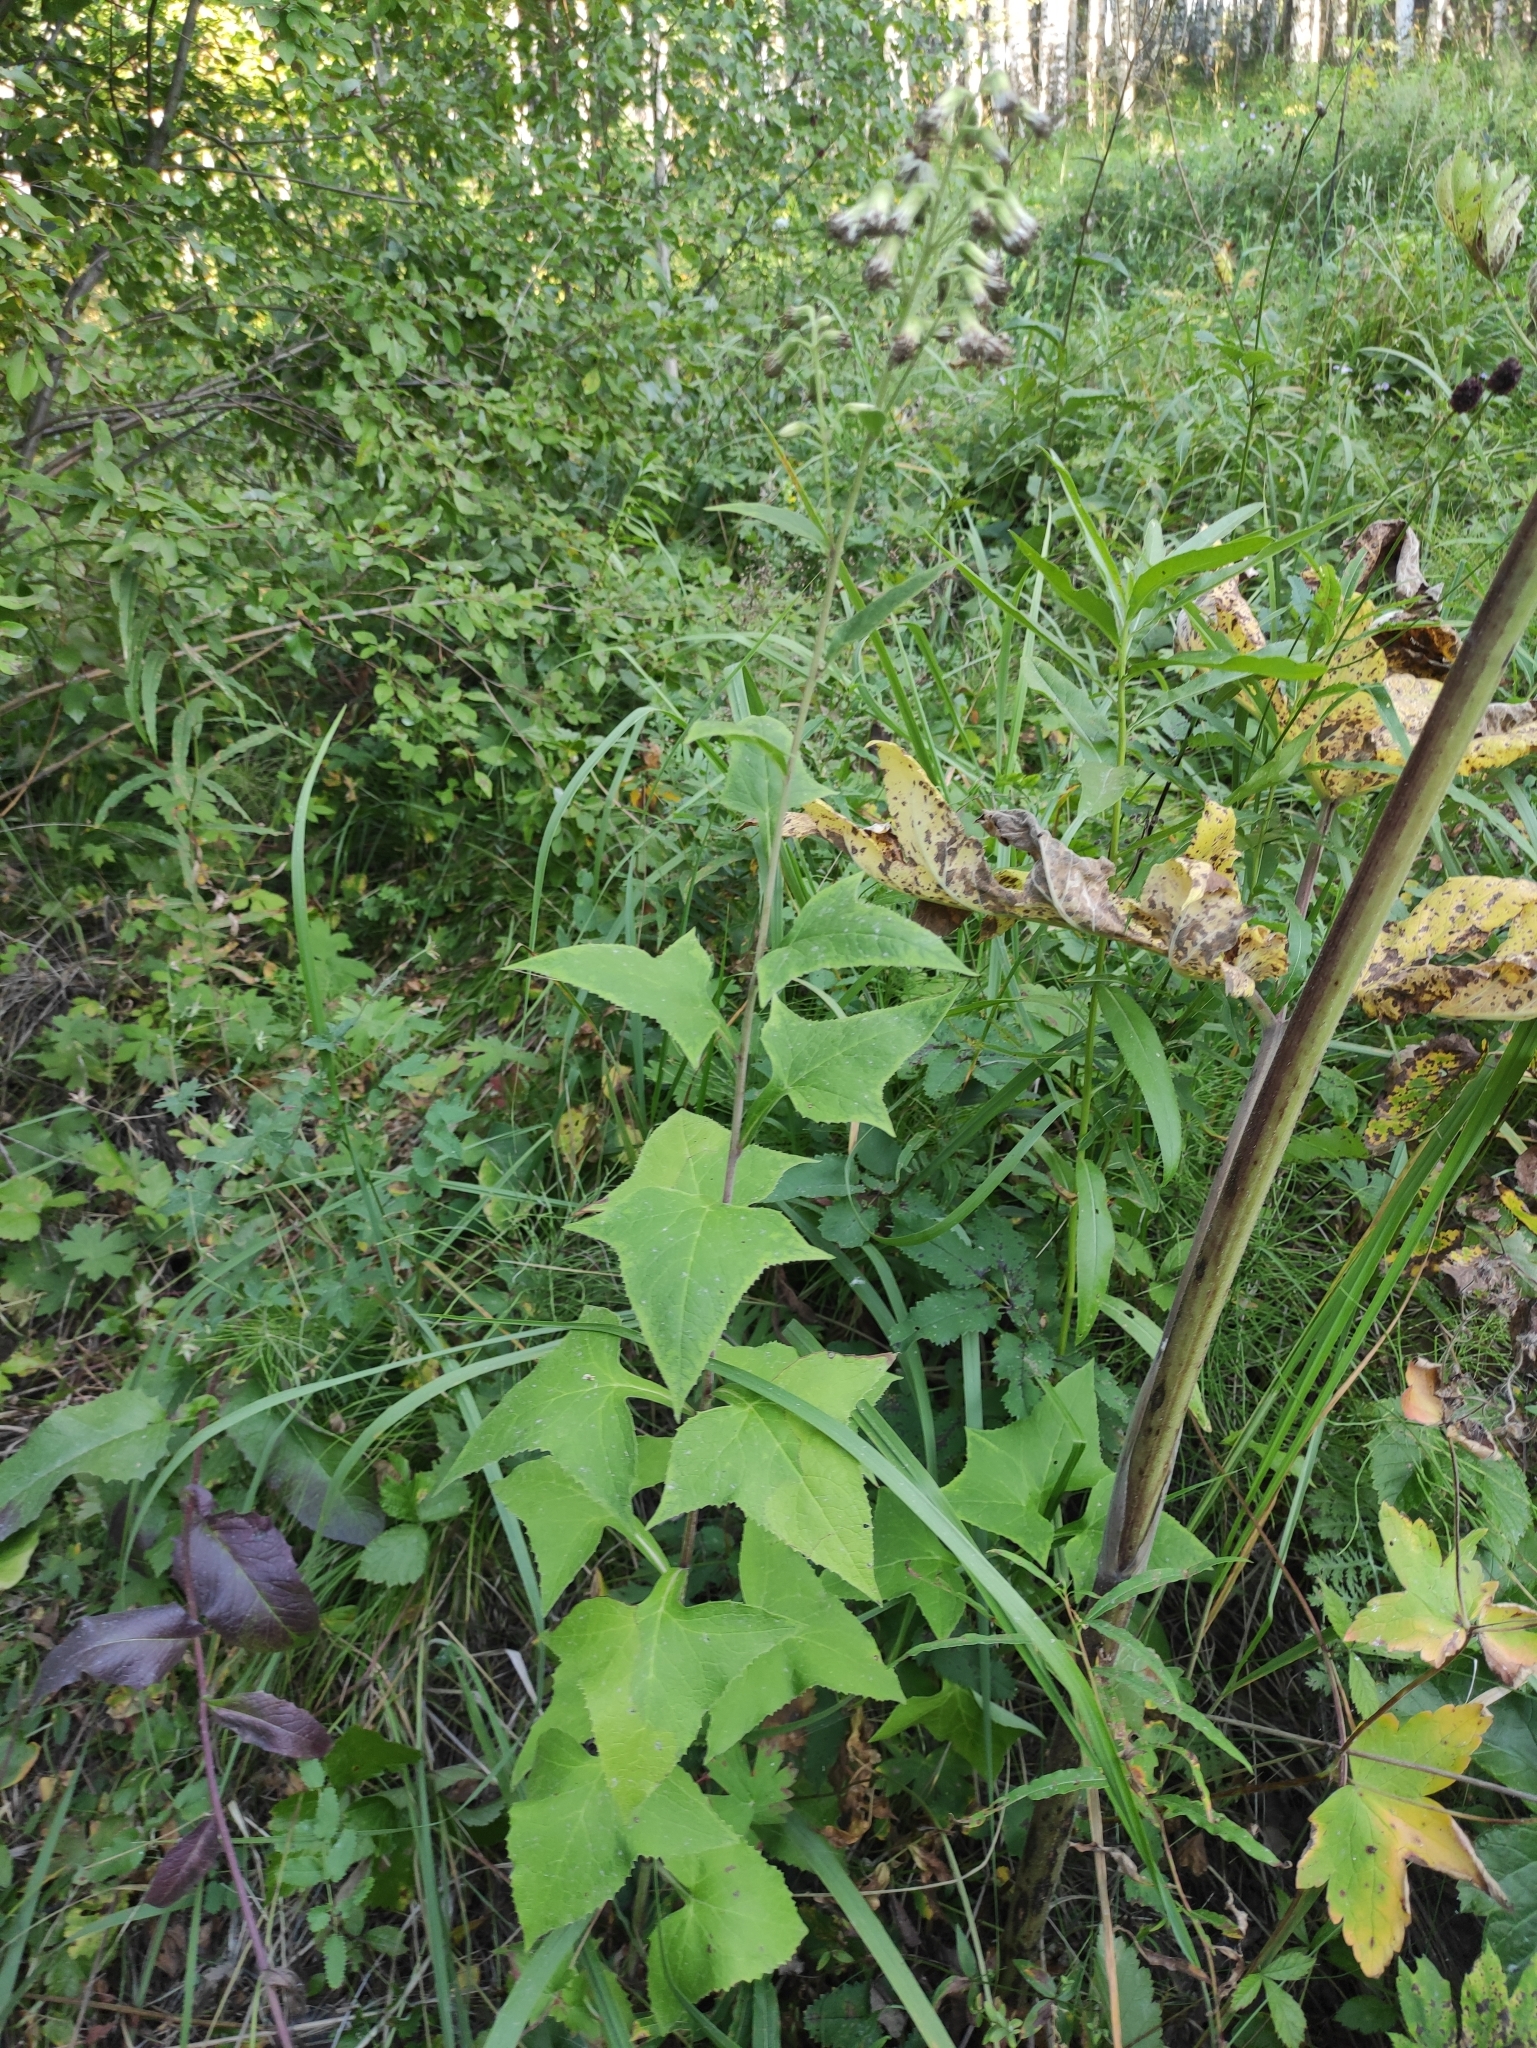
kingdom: Plantae
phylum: Tracheophyta
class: Magnoliopsida
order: Asterales
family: Asteraceae
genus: Parasenecio
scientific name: Parasenecio hastatus
